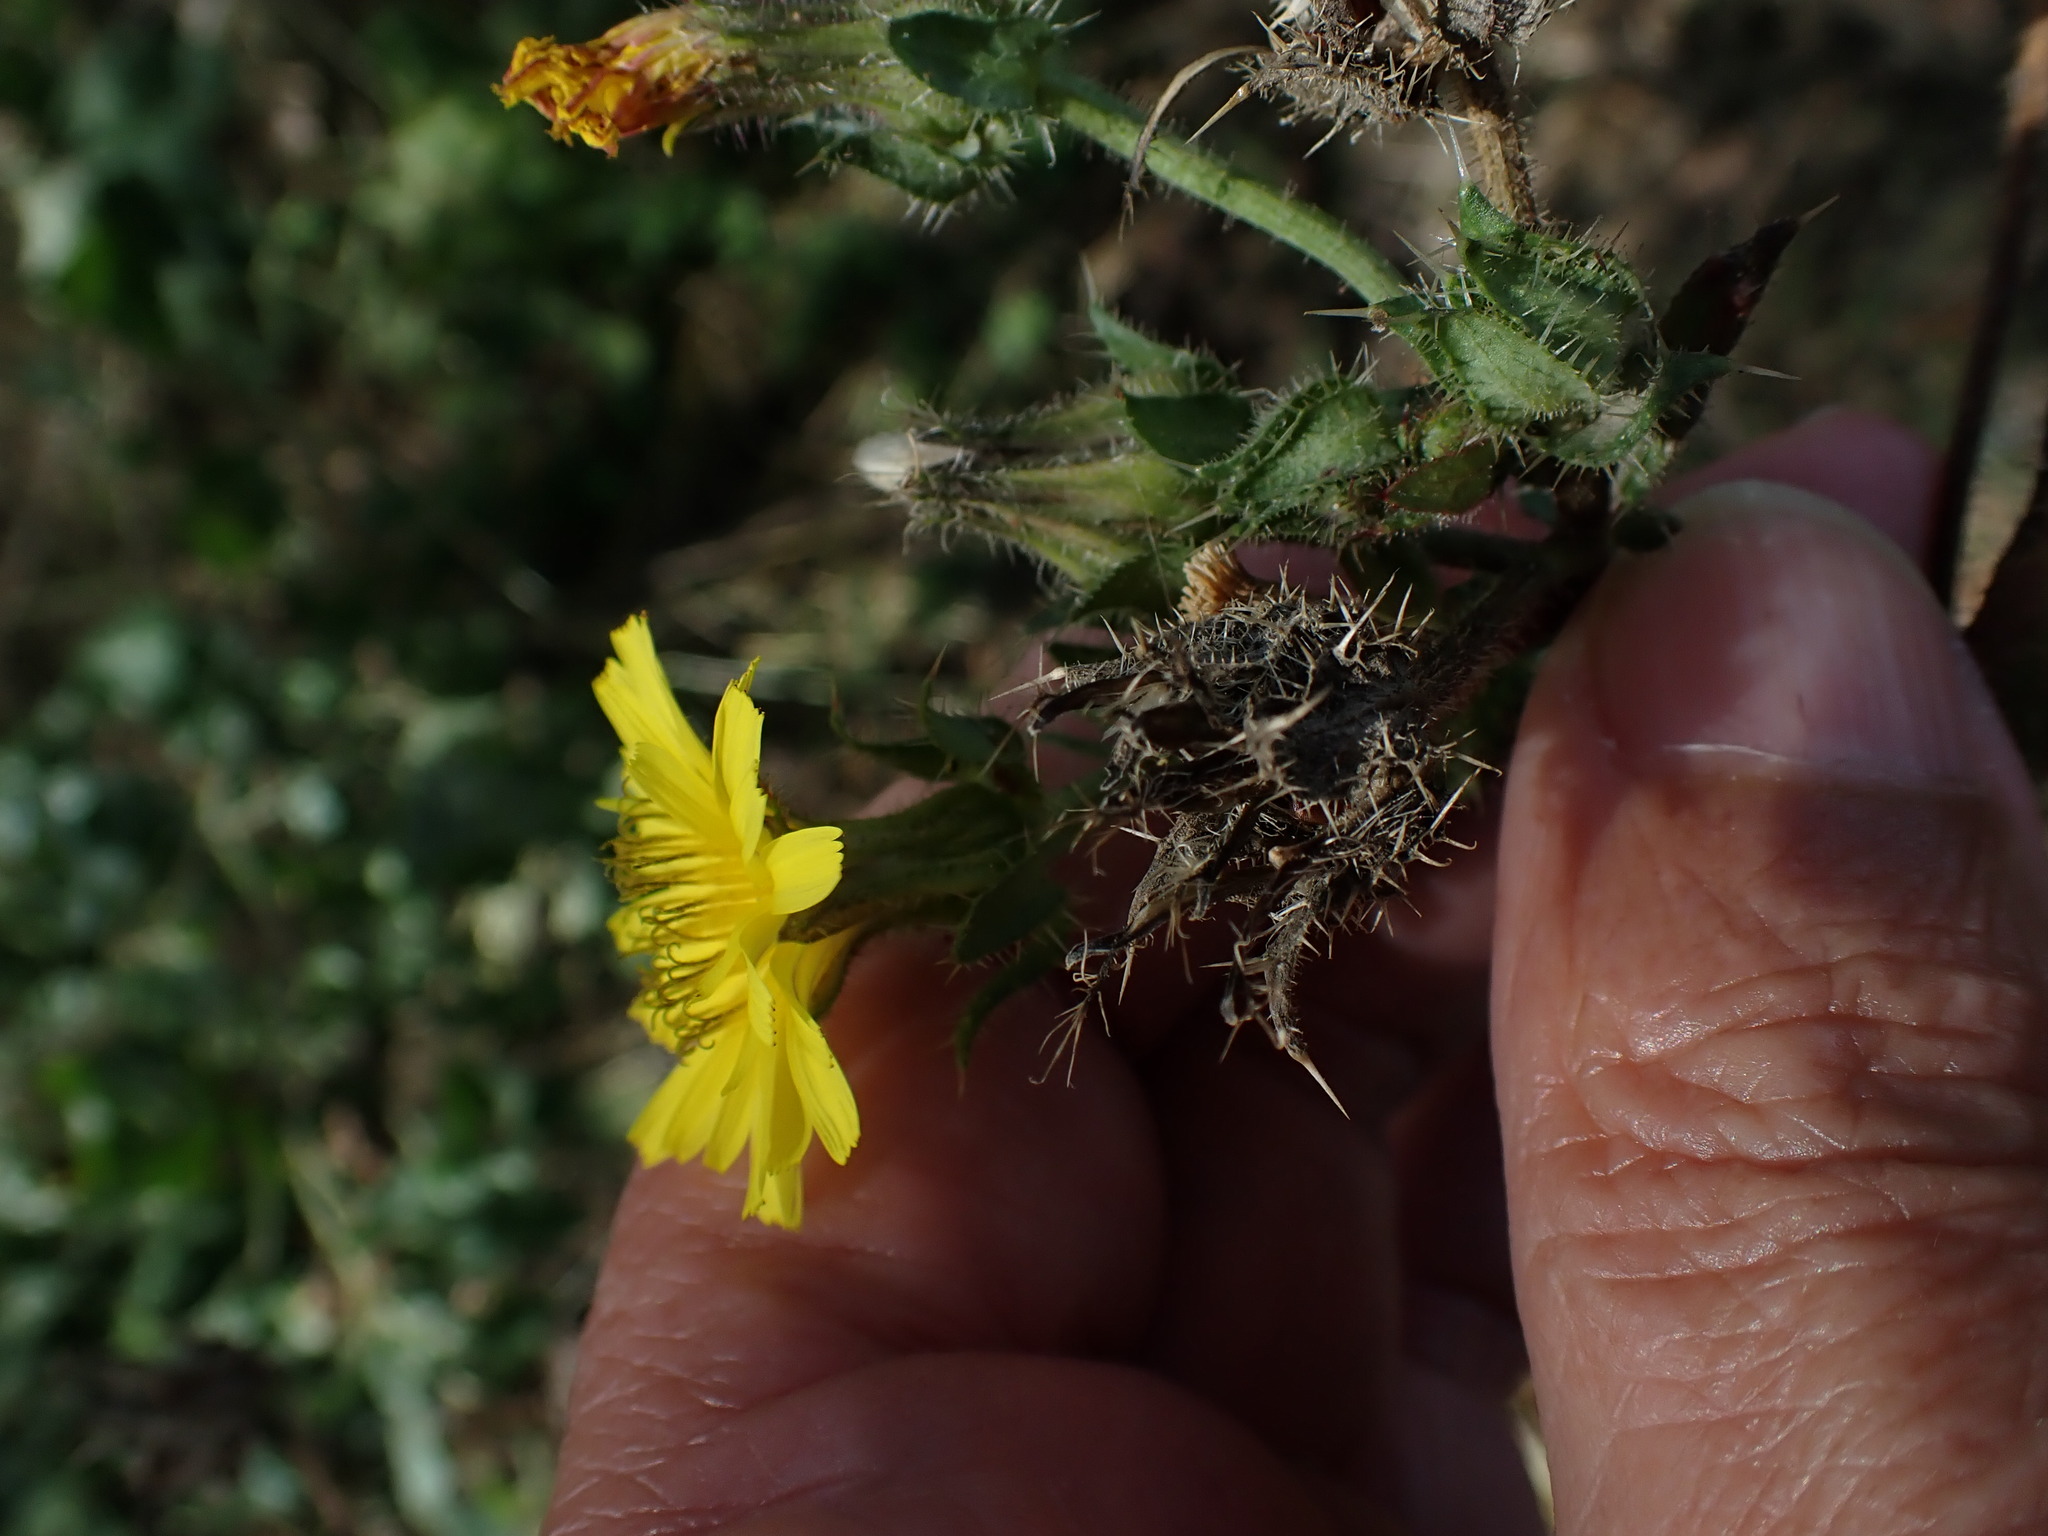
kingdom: Plantae
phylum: Tracheophyta
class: Magnoliopsida
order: Asterales
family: Asteraceae
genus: Helminthotheca
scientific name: Helminthotheca echioides
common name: Ox-tongue
